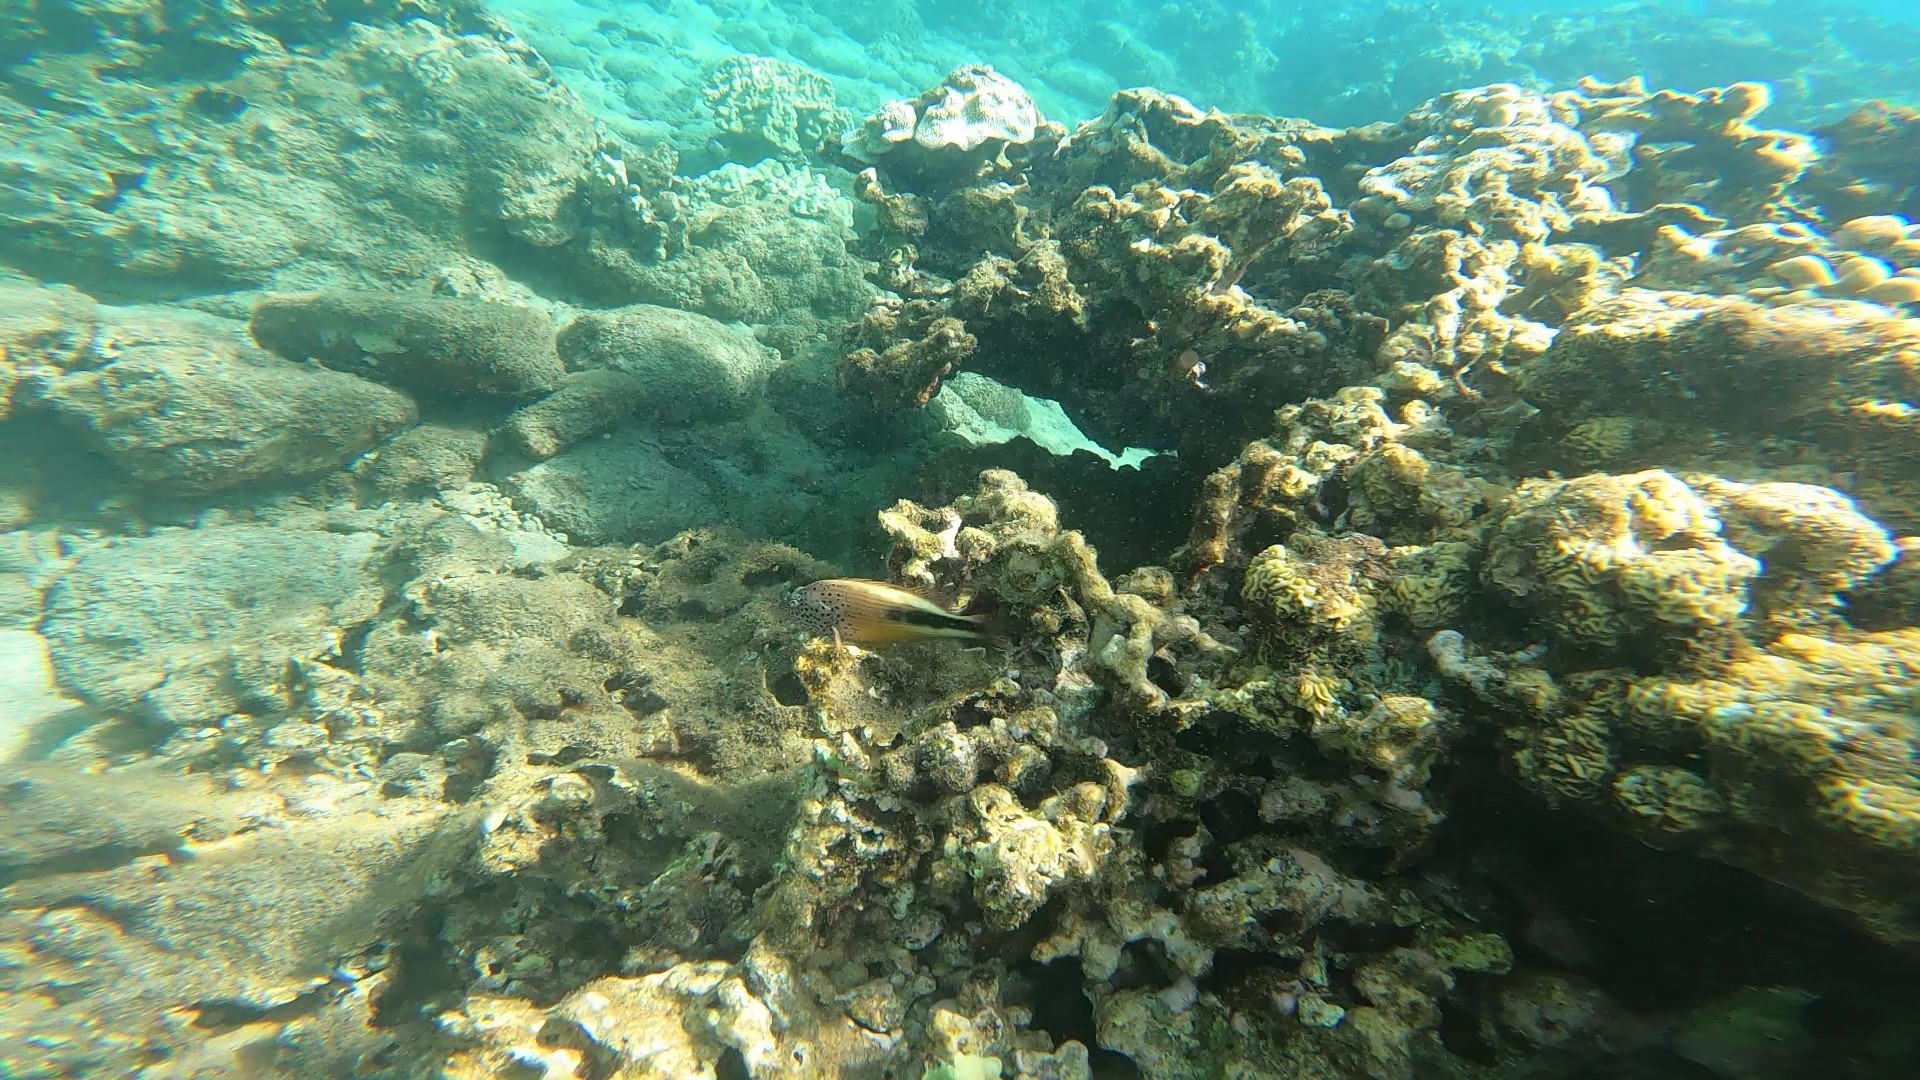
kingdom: Animalia
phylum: Chordata
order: Perciformes
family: Cirrhitidae
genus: Paracirrhites
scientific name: Paracirrhites forsteri
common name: Freckled hawkfish
